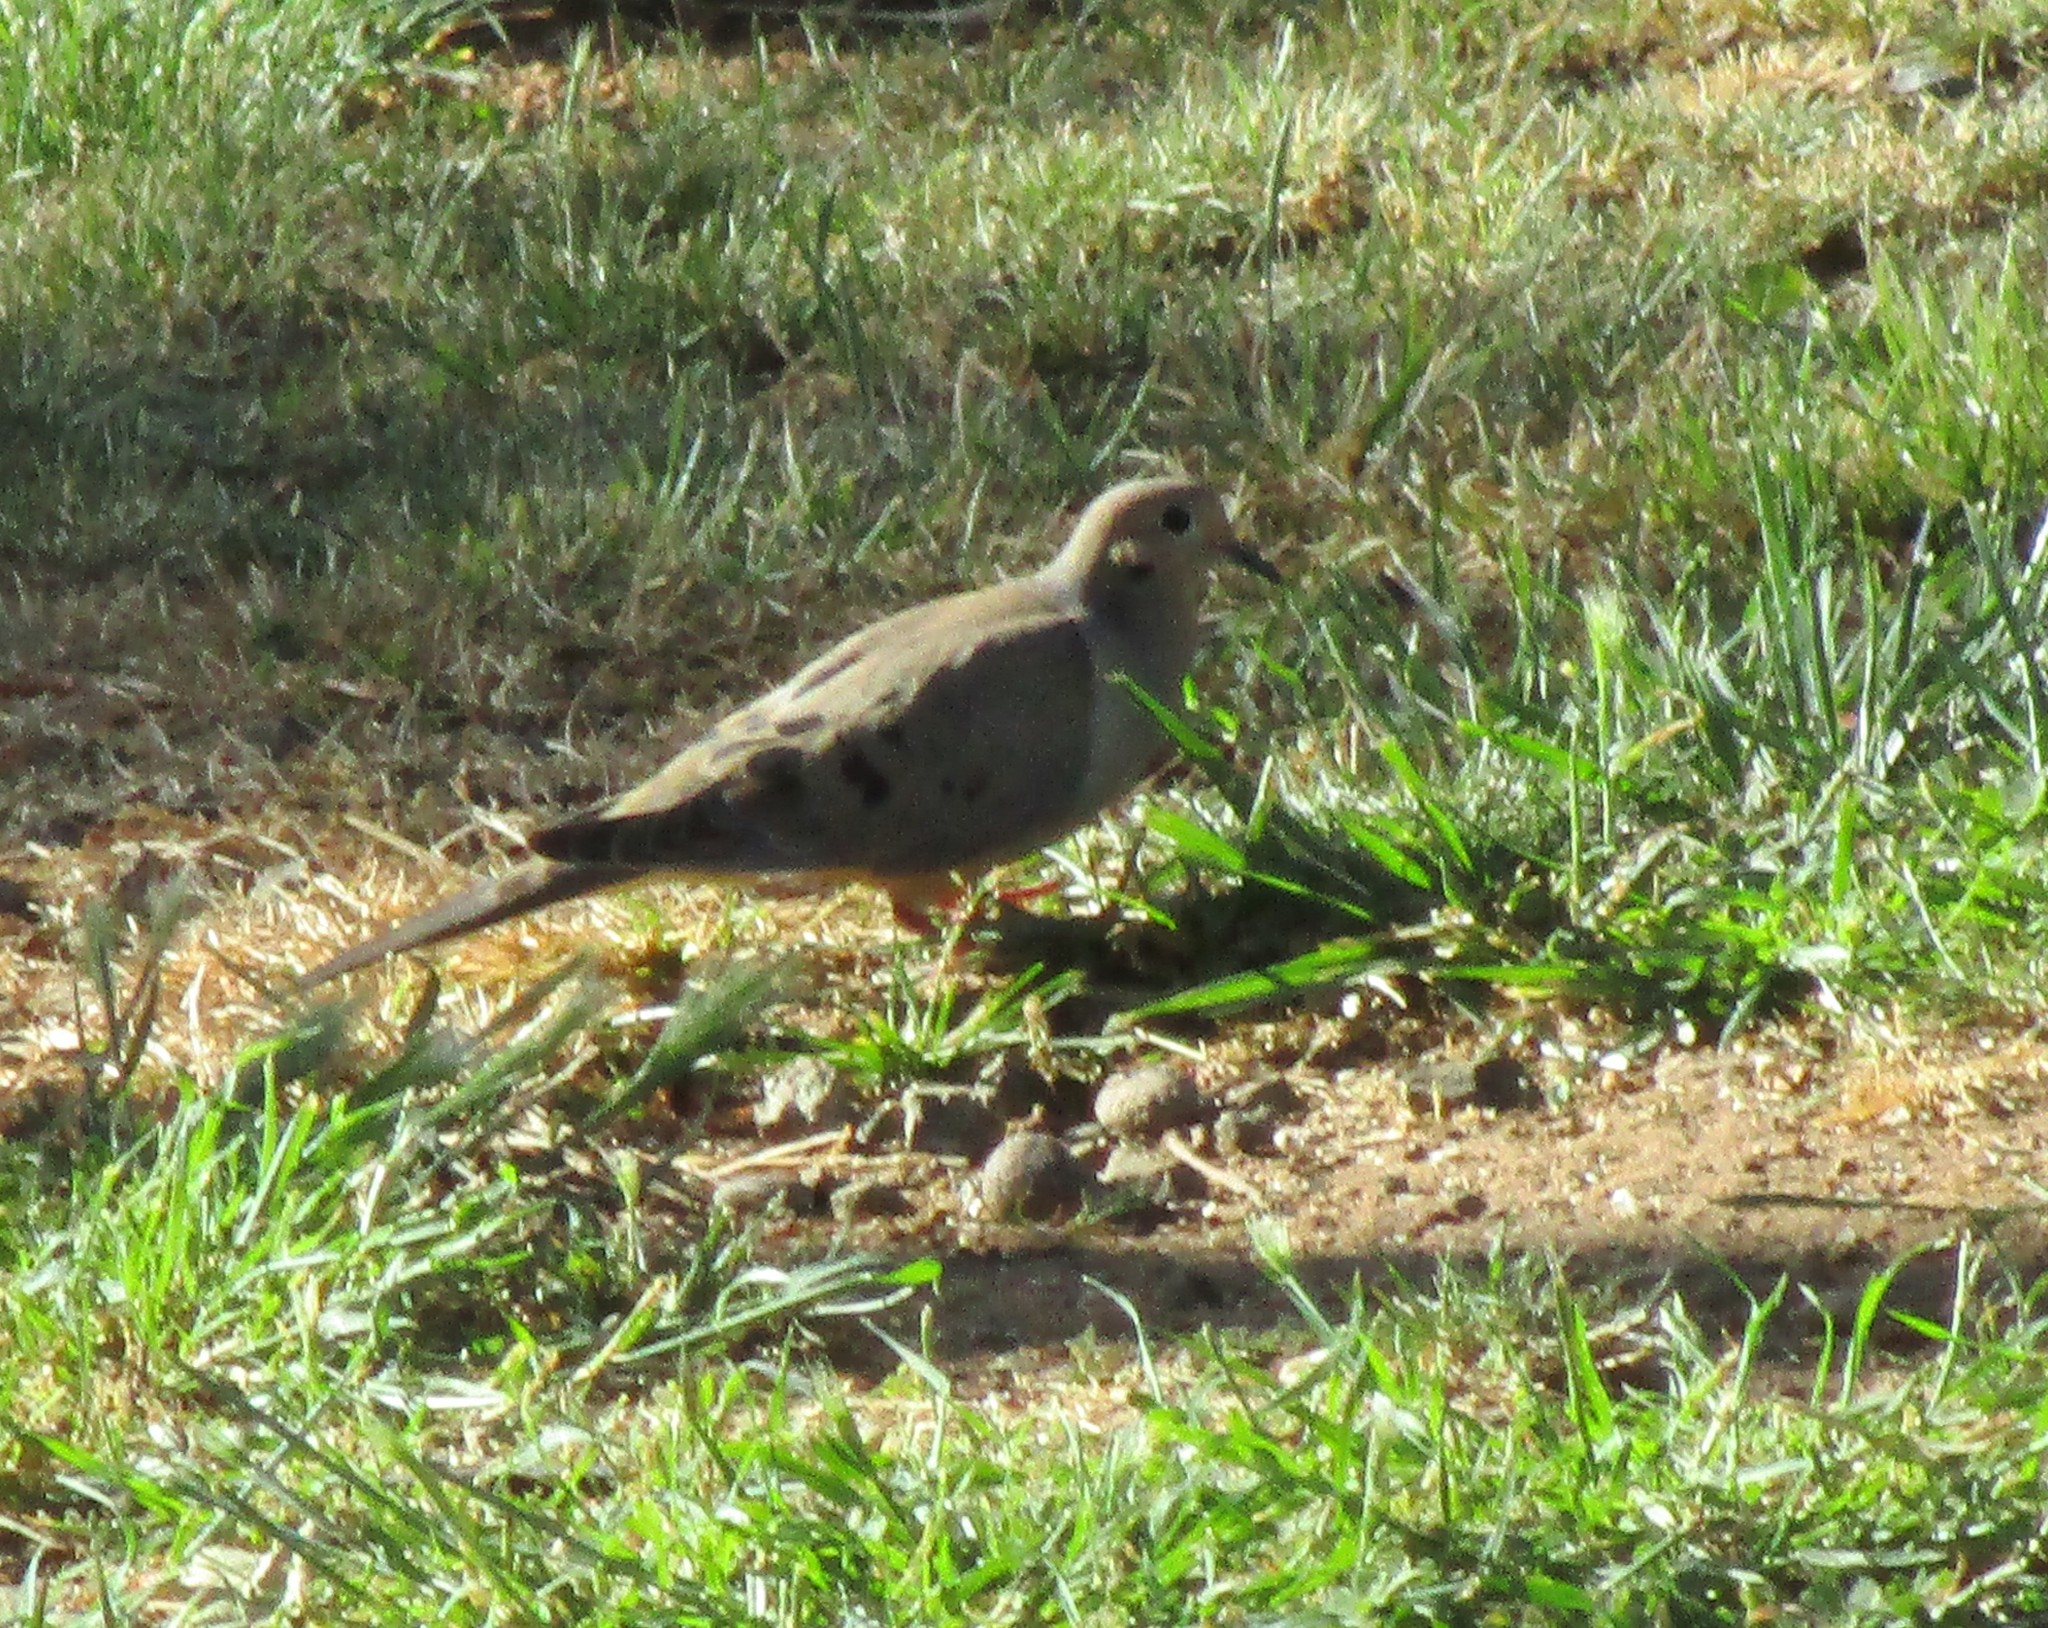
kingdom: Animalia
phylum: Chordata
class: Aves
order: Columbiformes
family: Columbidae
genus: Zenaida
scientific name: Zenaida macroura
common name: Mourning dove
